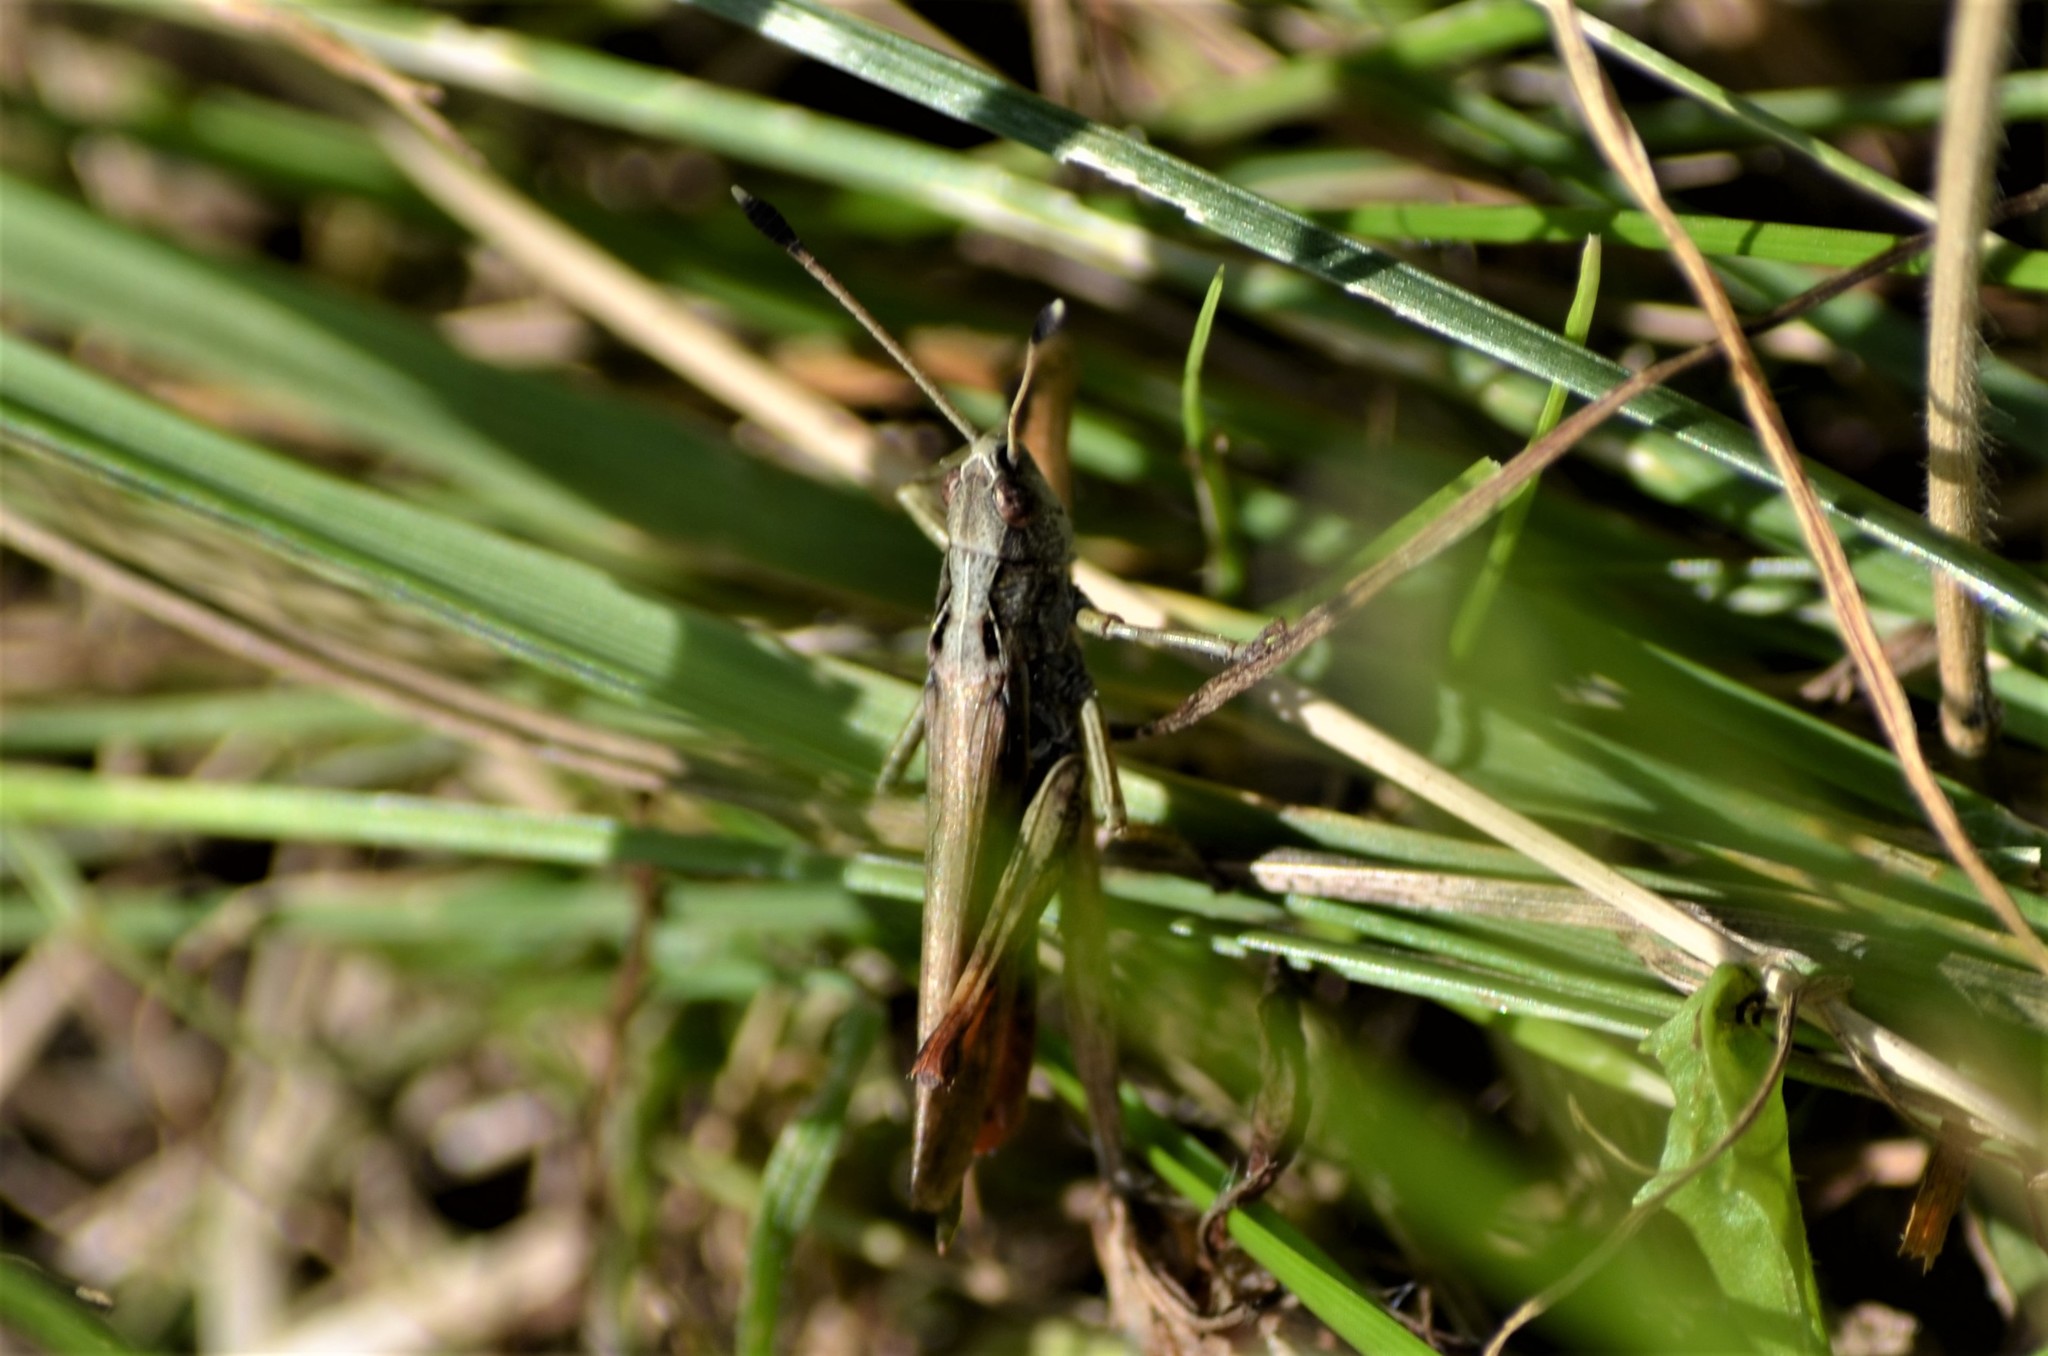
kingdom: Animalia
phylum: Arthropoda
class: Insecta
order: Orthoptera
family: Acrididae
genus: Gomphocerippus
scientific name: Gomphocerippus rufus
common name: Rufous grasshopper
